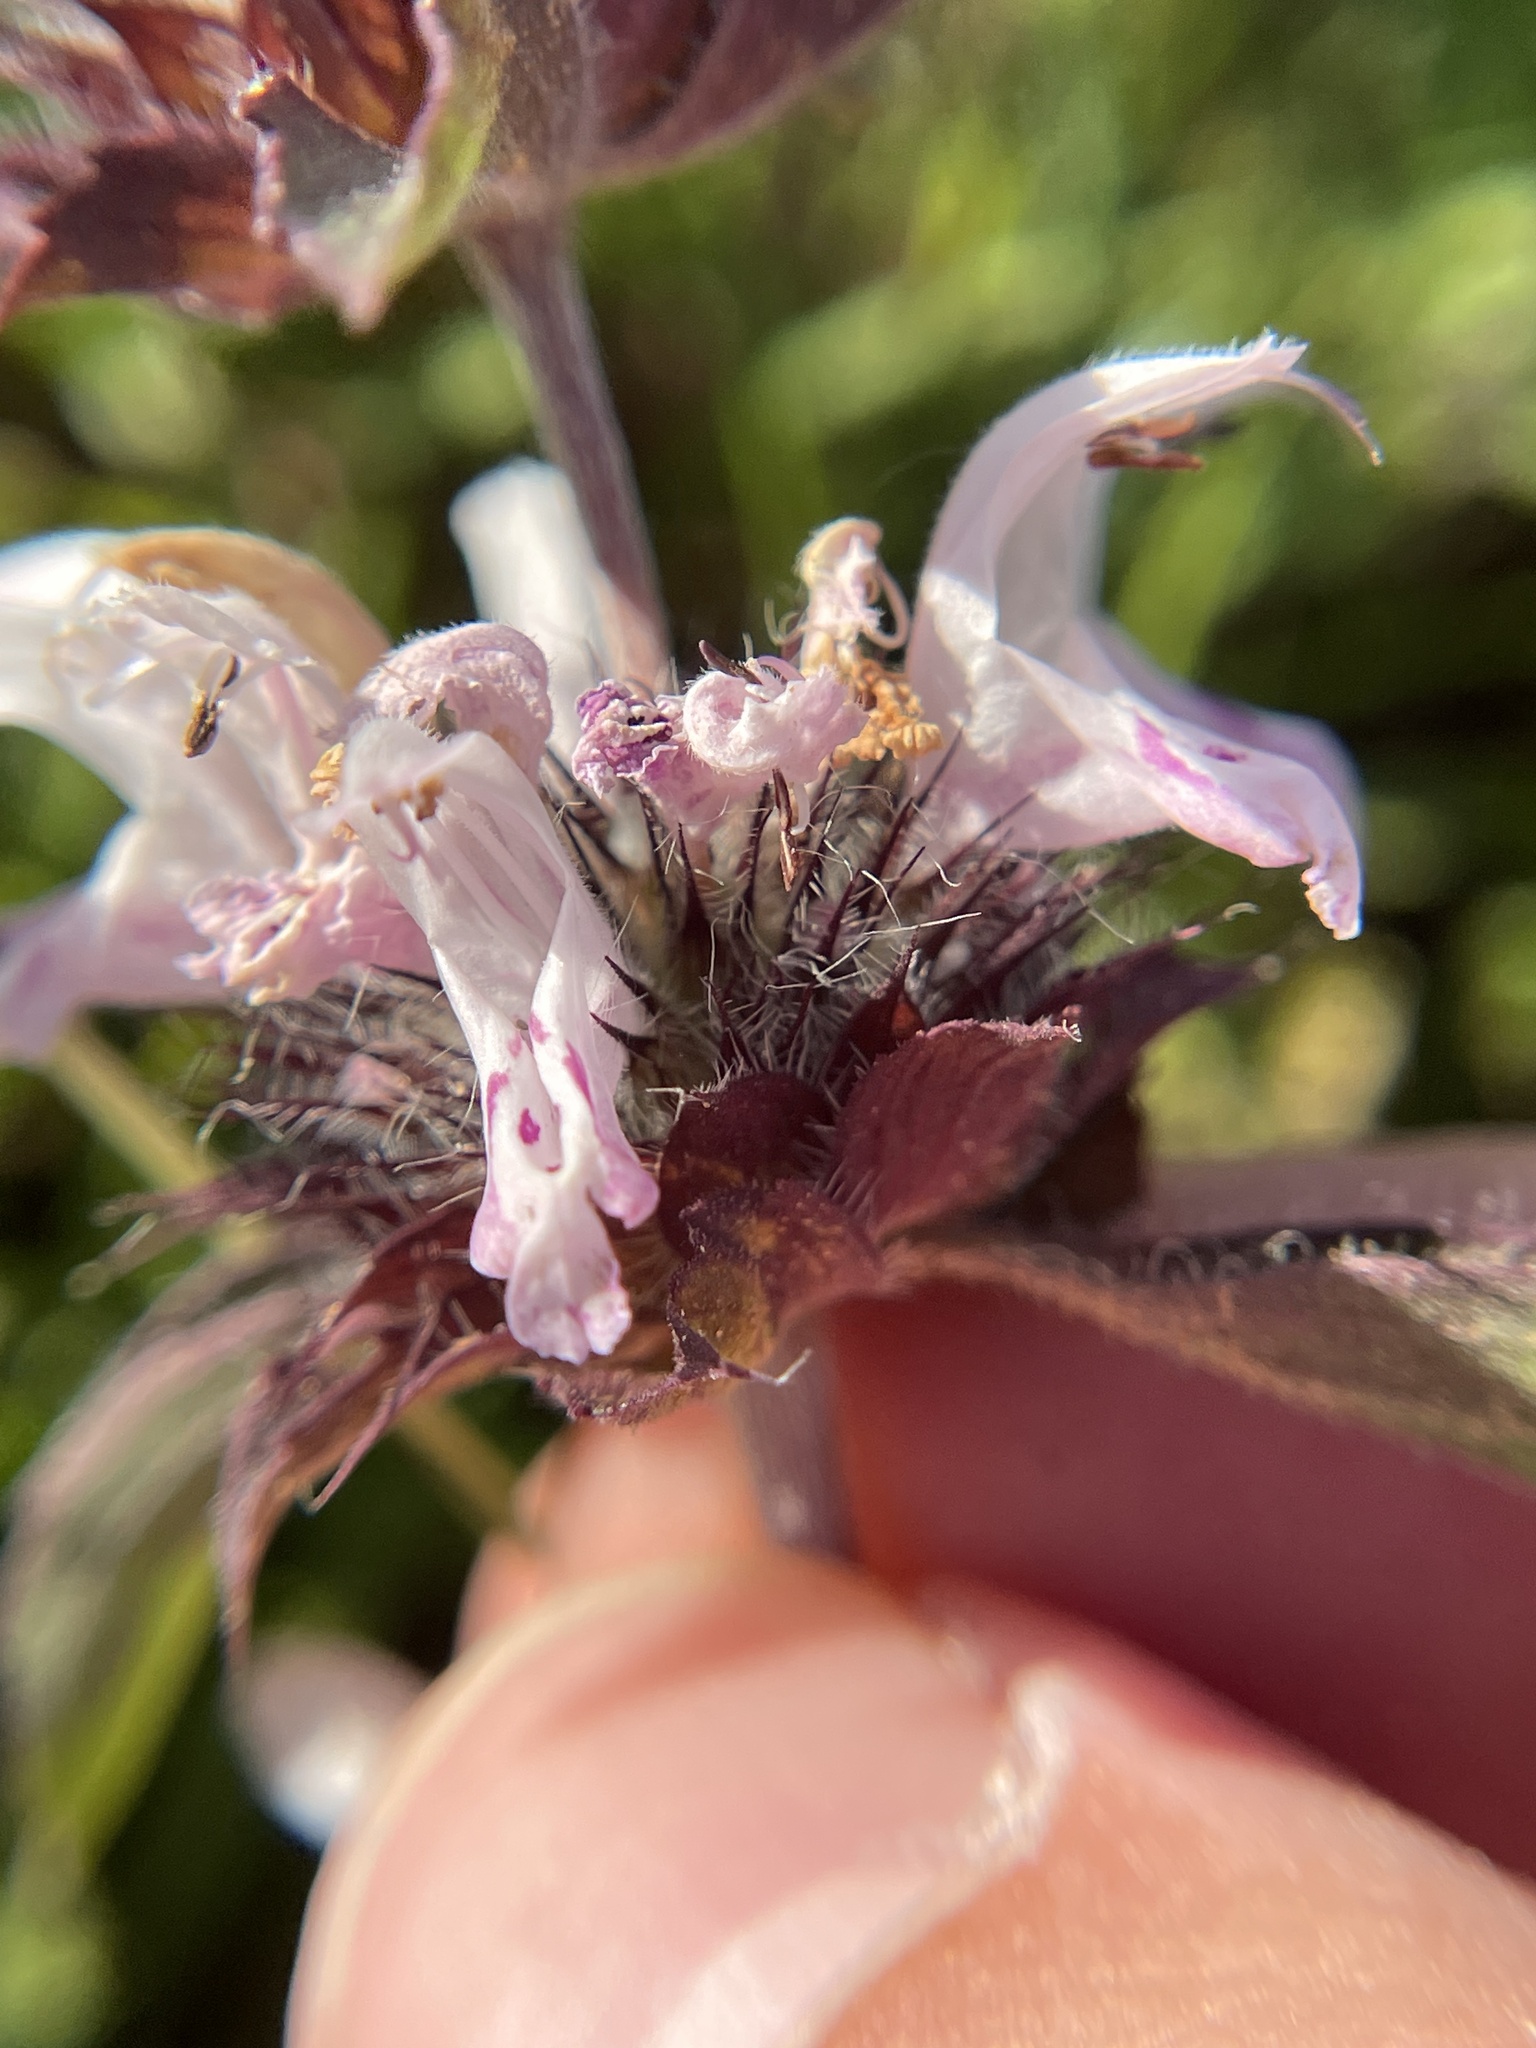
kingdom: Plantae
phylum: Tracheophyta
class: Magnoliopsida
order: Lamiales
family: Lamiaceae
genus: Monarda
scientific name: Monarda clinopodioides
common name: Basil beebalm
